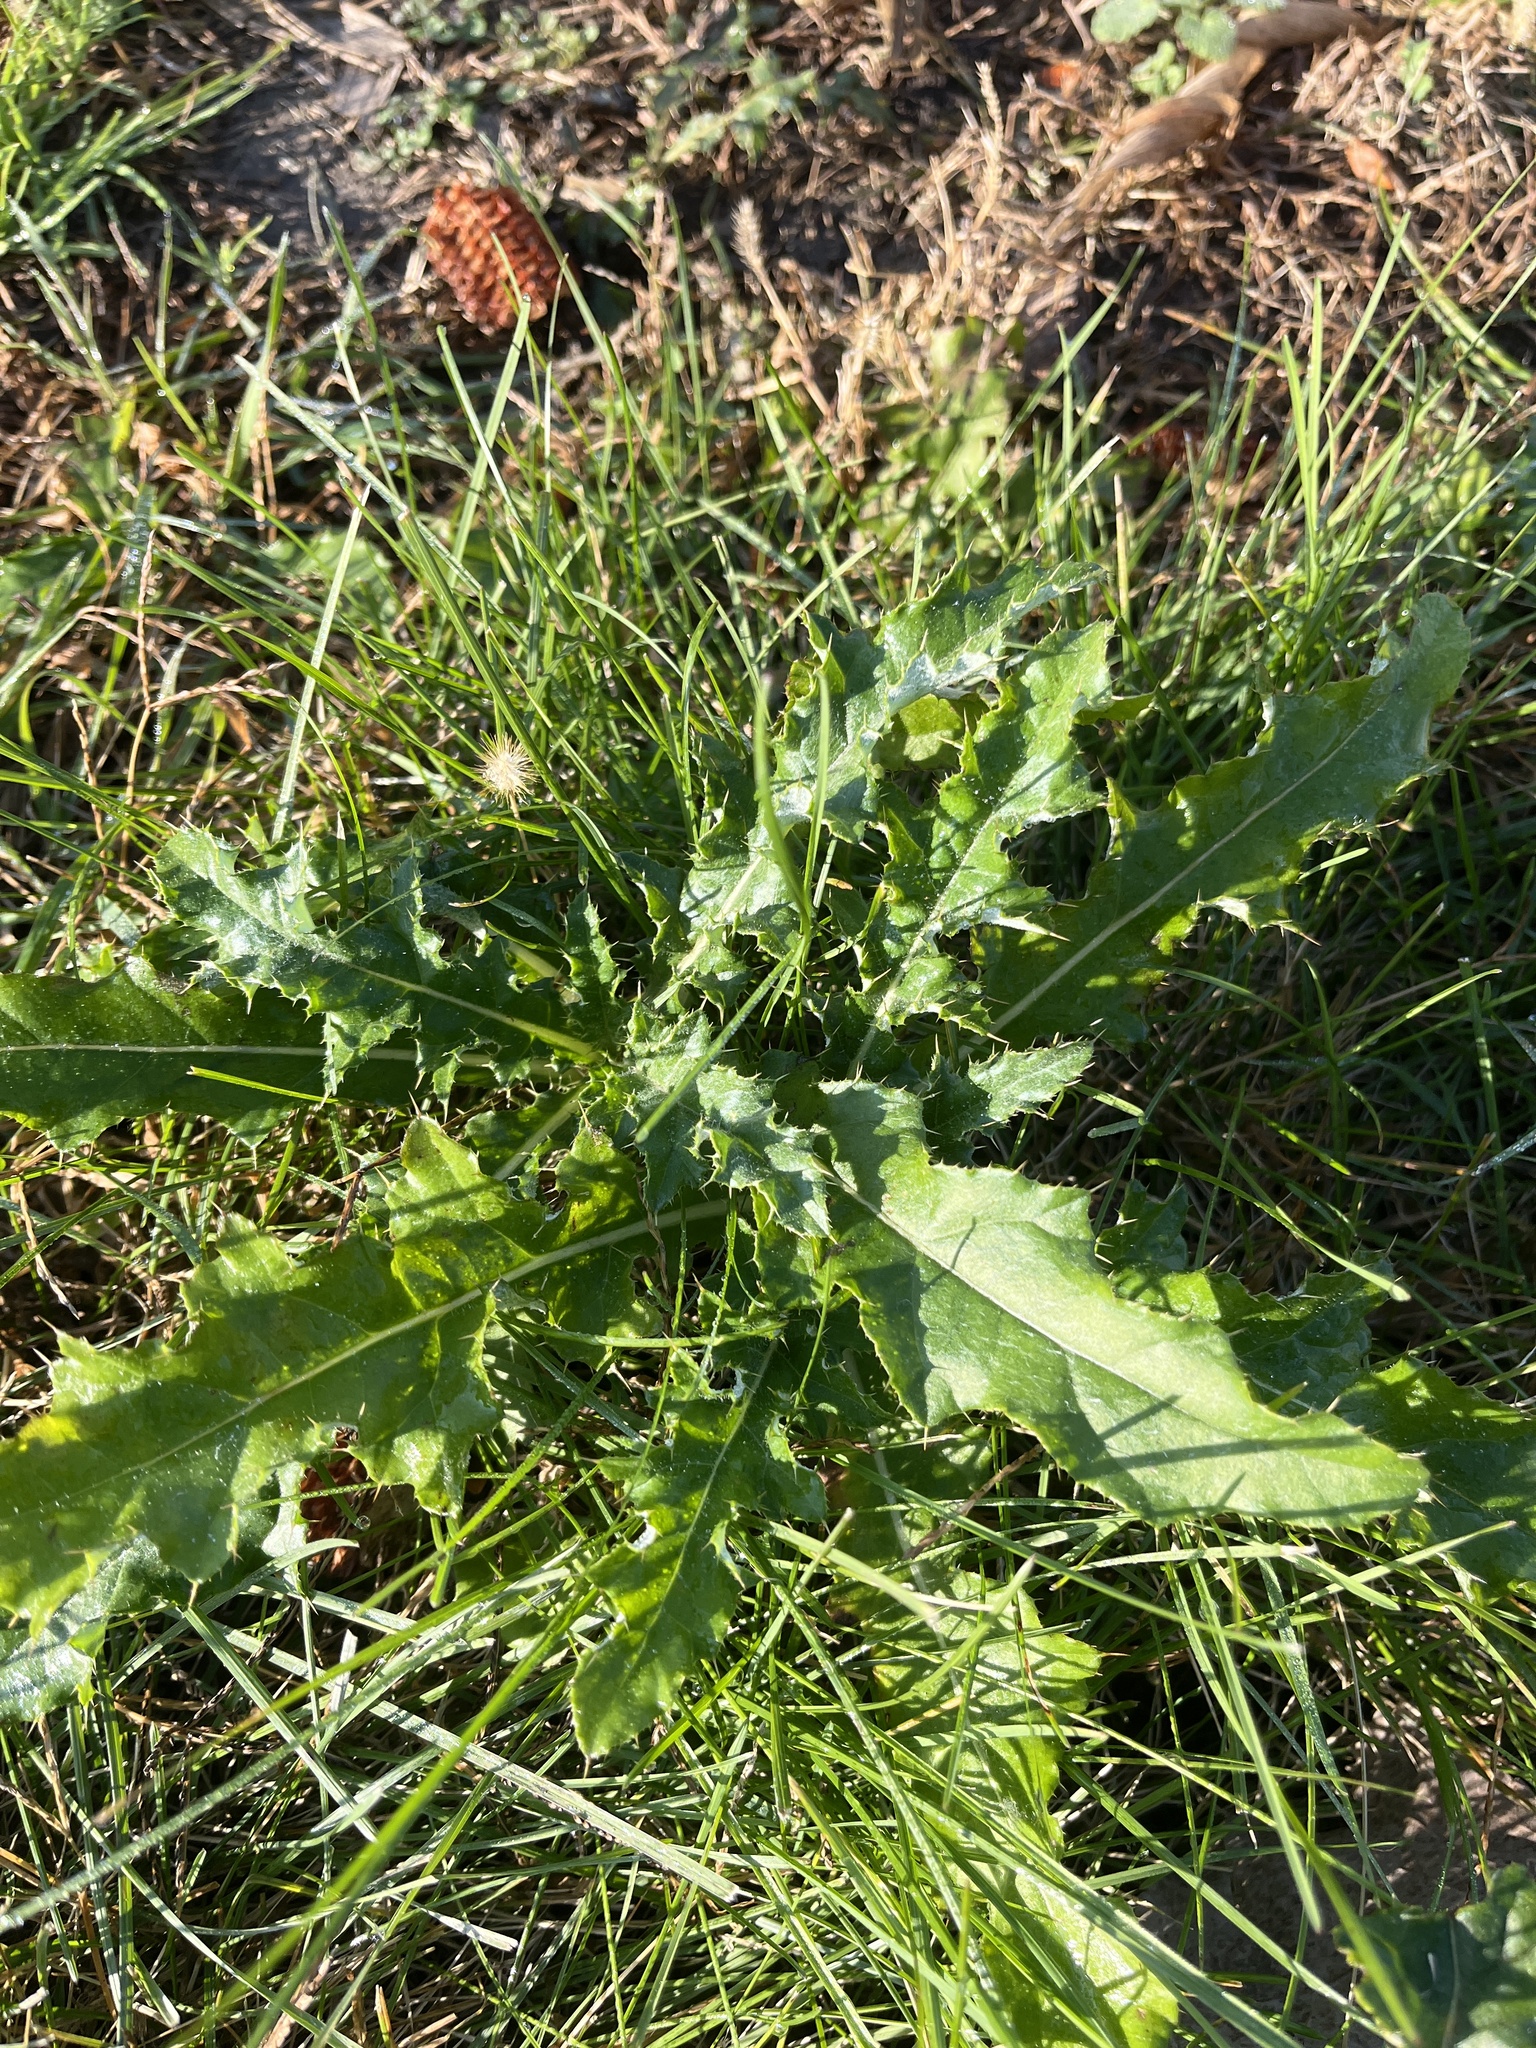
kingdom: Plantae
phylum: Tracheophyta
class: Magnoliopsida
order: Asterales
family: Asteraceae
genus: Cirsium
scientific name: Cirsium arvense
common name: Creeping thistle
